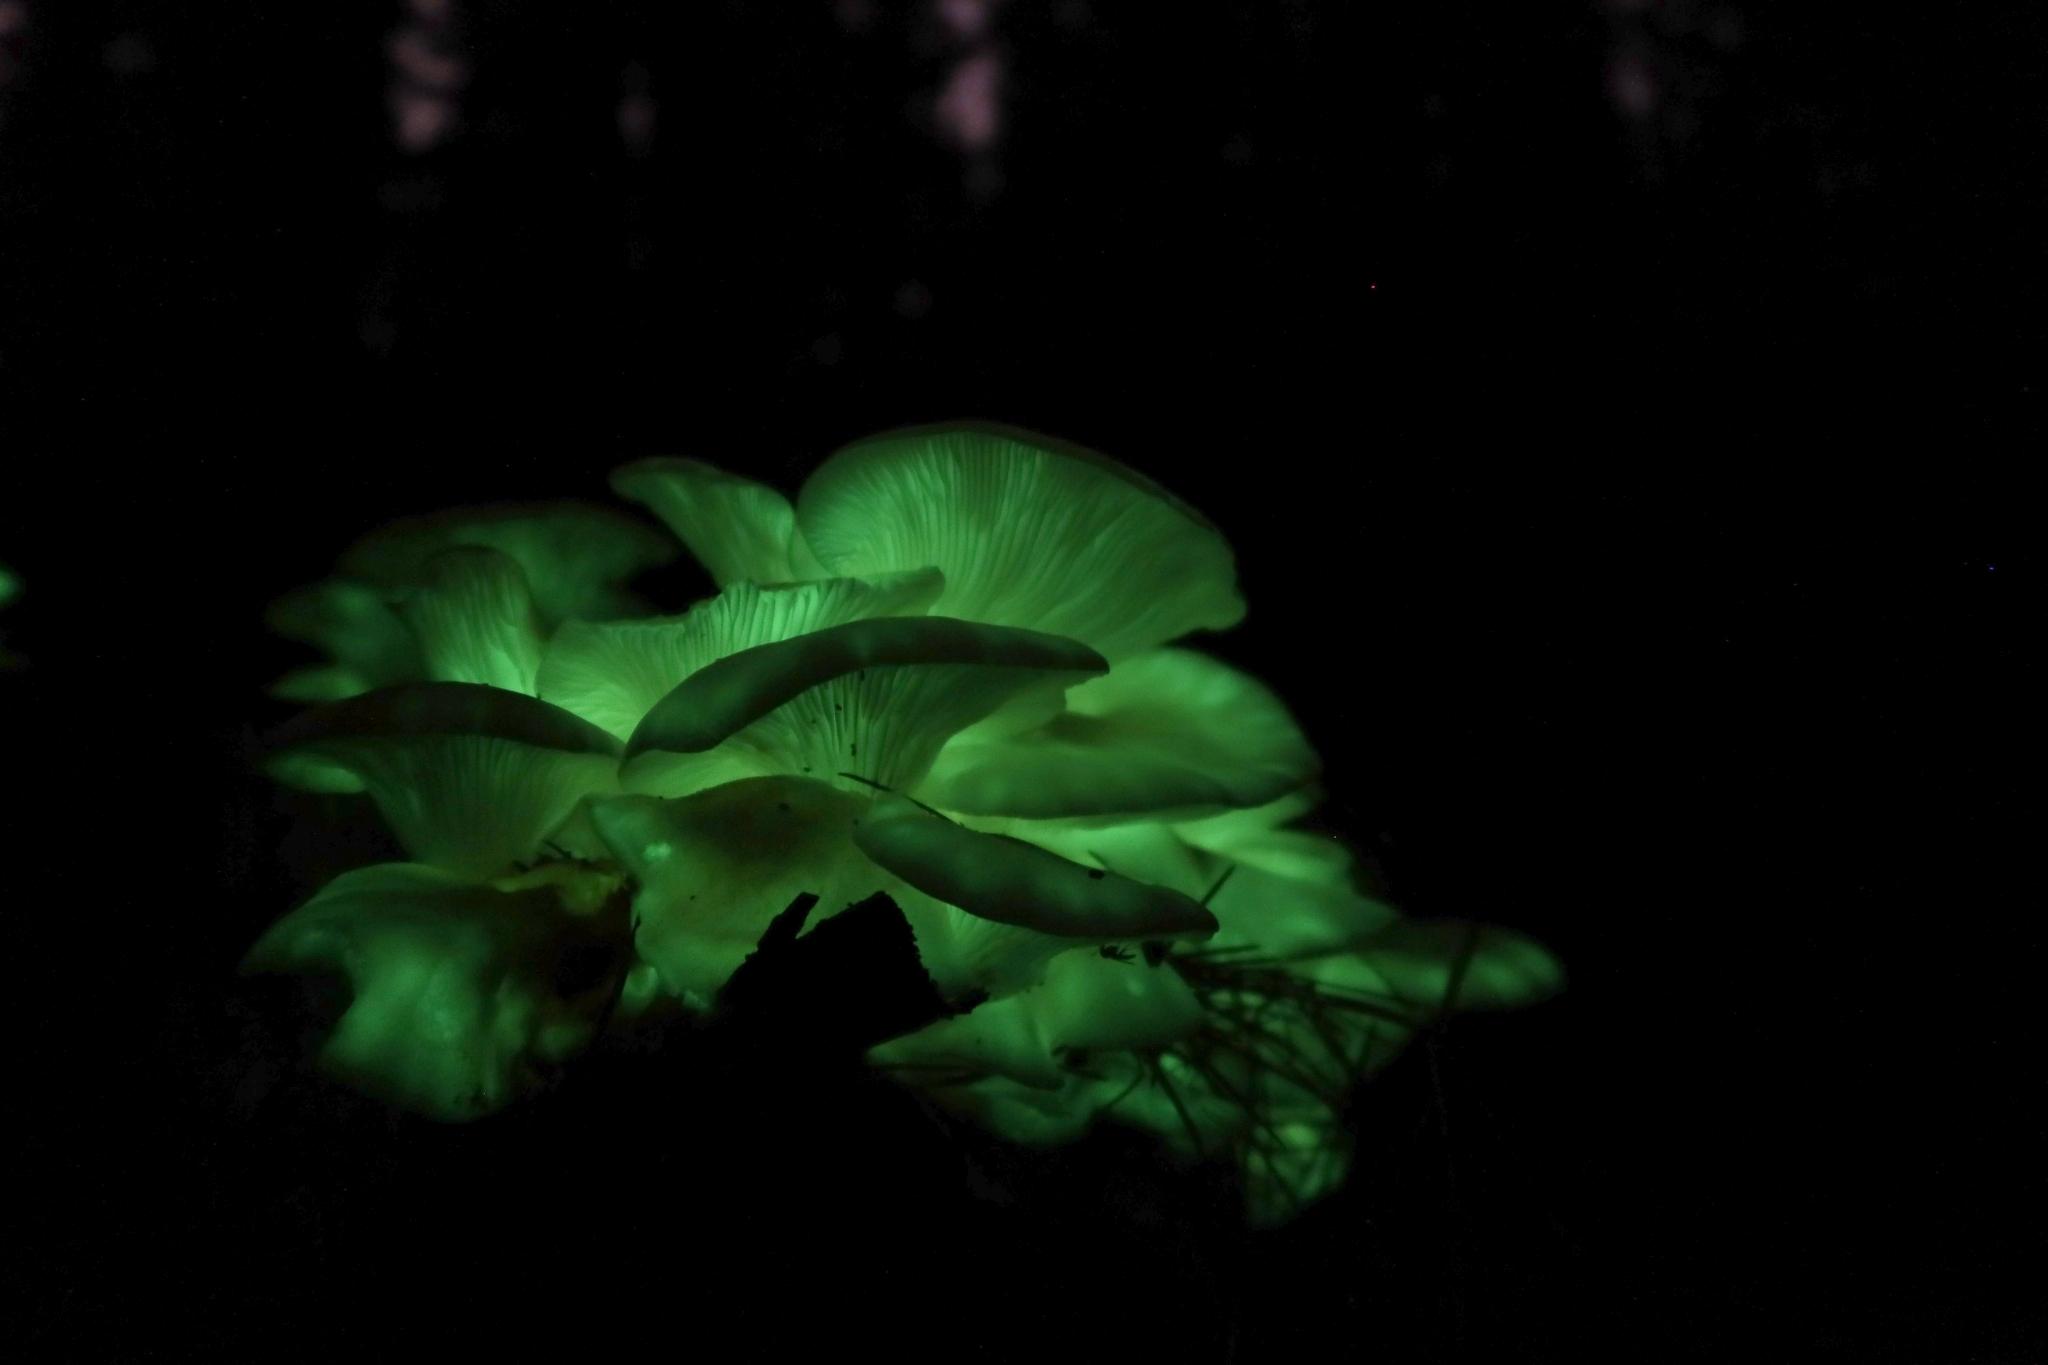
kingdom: Fungi
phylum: Basidiomycota
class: Agaricomycetes
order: Agaricales
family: Omphalotaceae
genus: Omphalotus
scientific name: Omphalotus nidiformis
